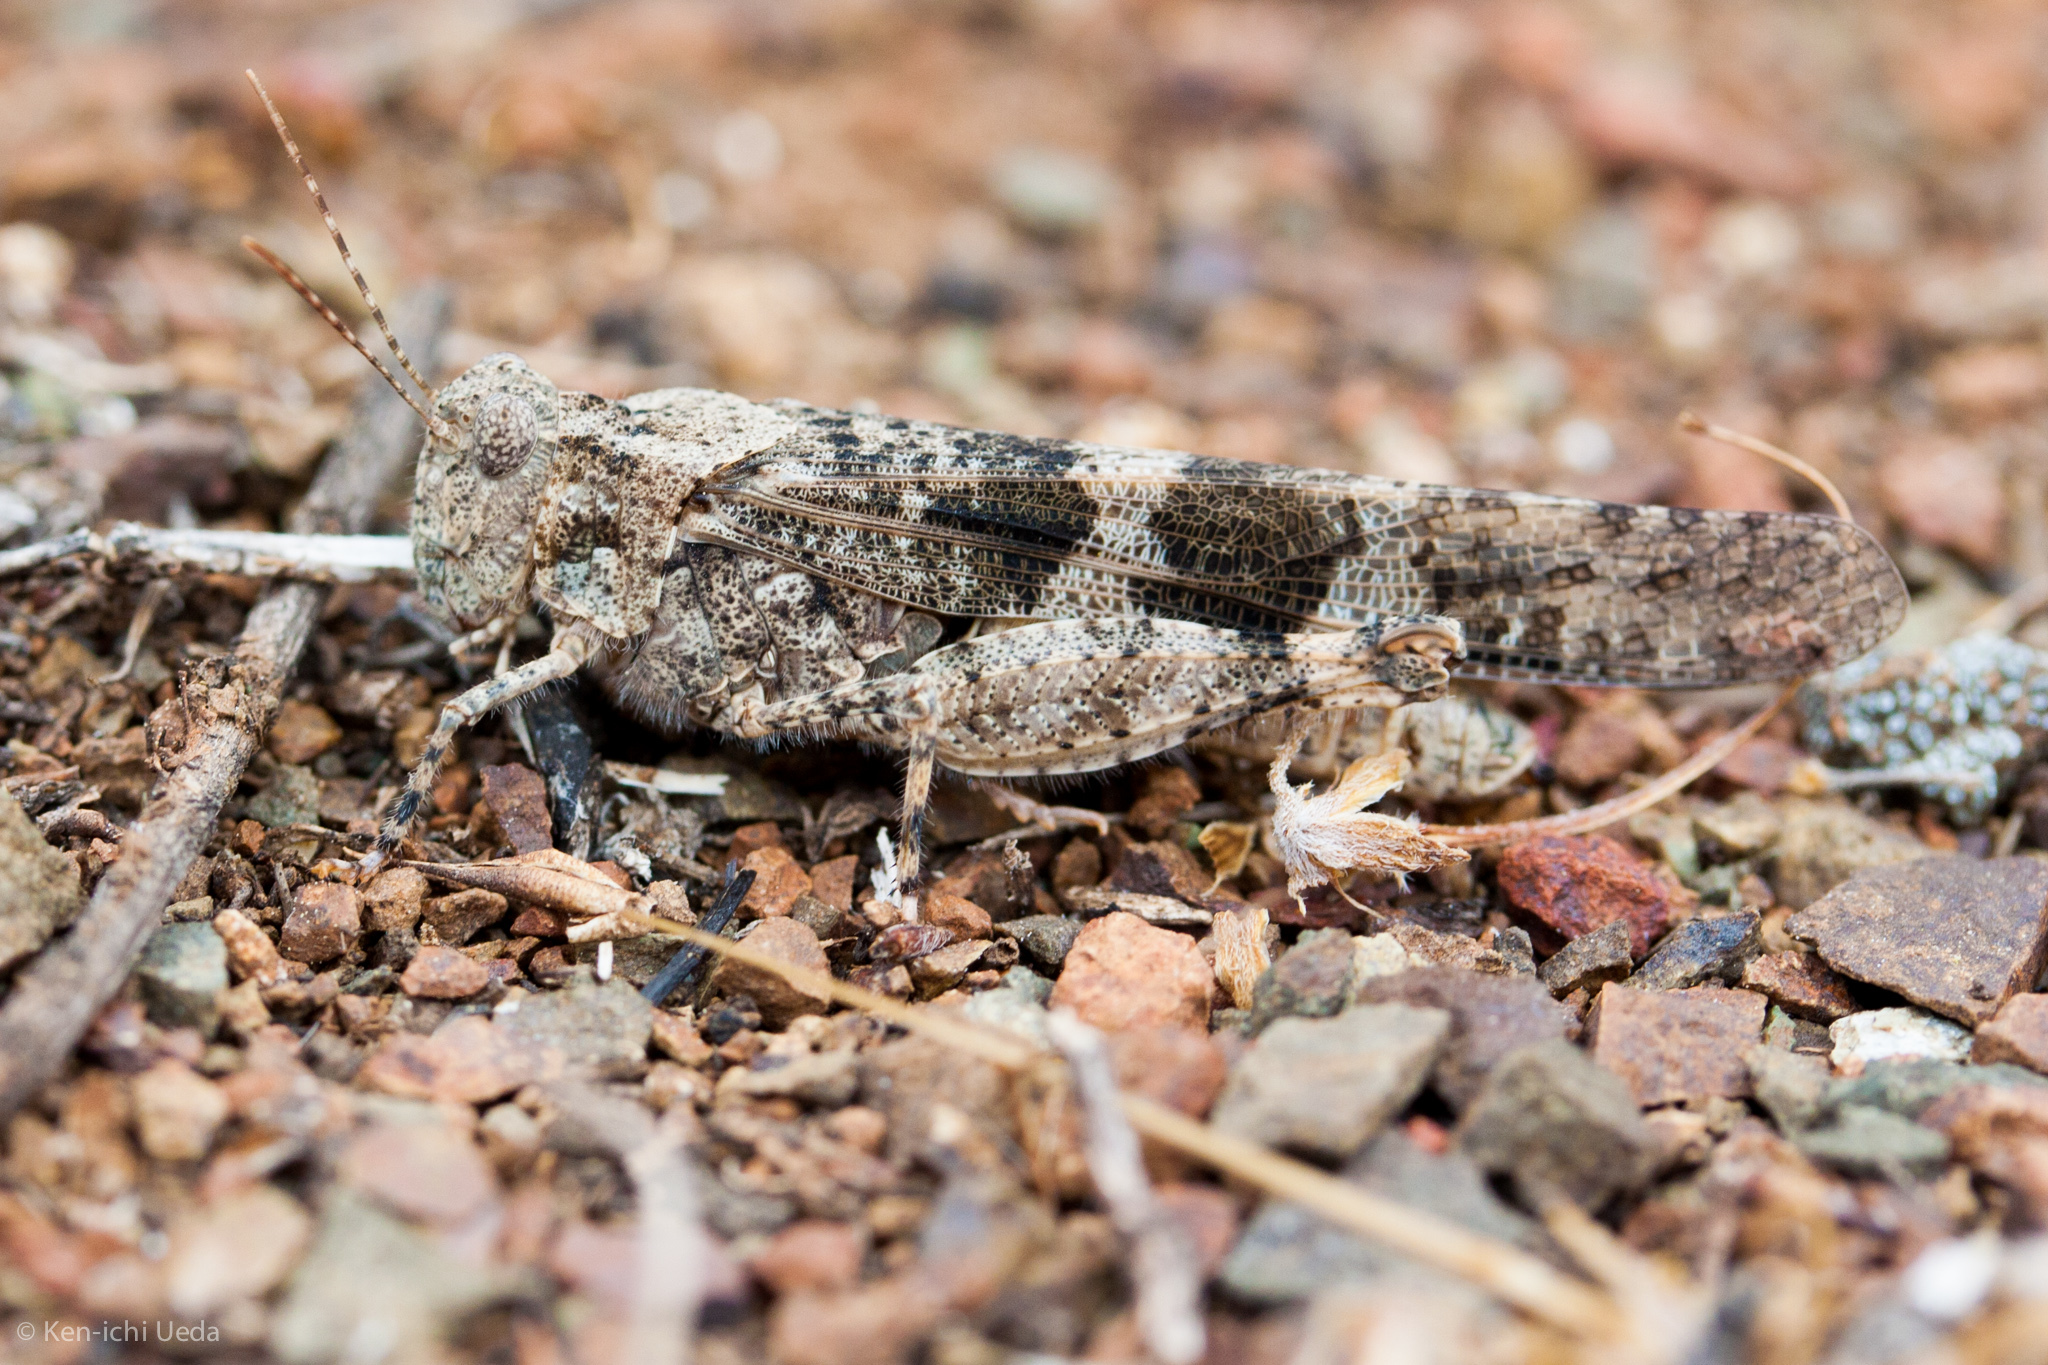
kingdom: Animalia
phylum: Arthropoda
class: Insecta
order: Orthoptera
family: Acrididae
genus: Trimerotropis
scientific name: Trimerotropis pallidipennis
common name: Pallid-winged grasshopper
